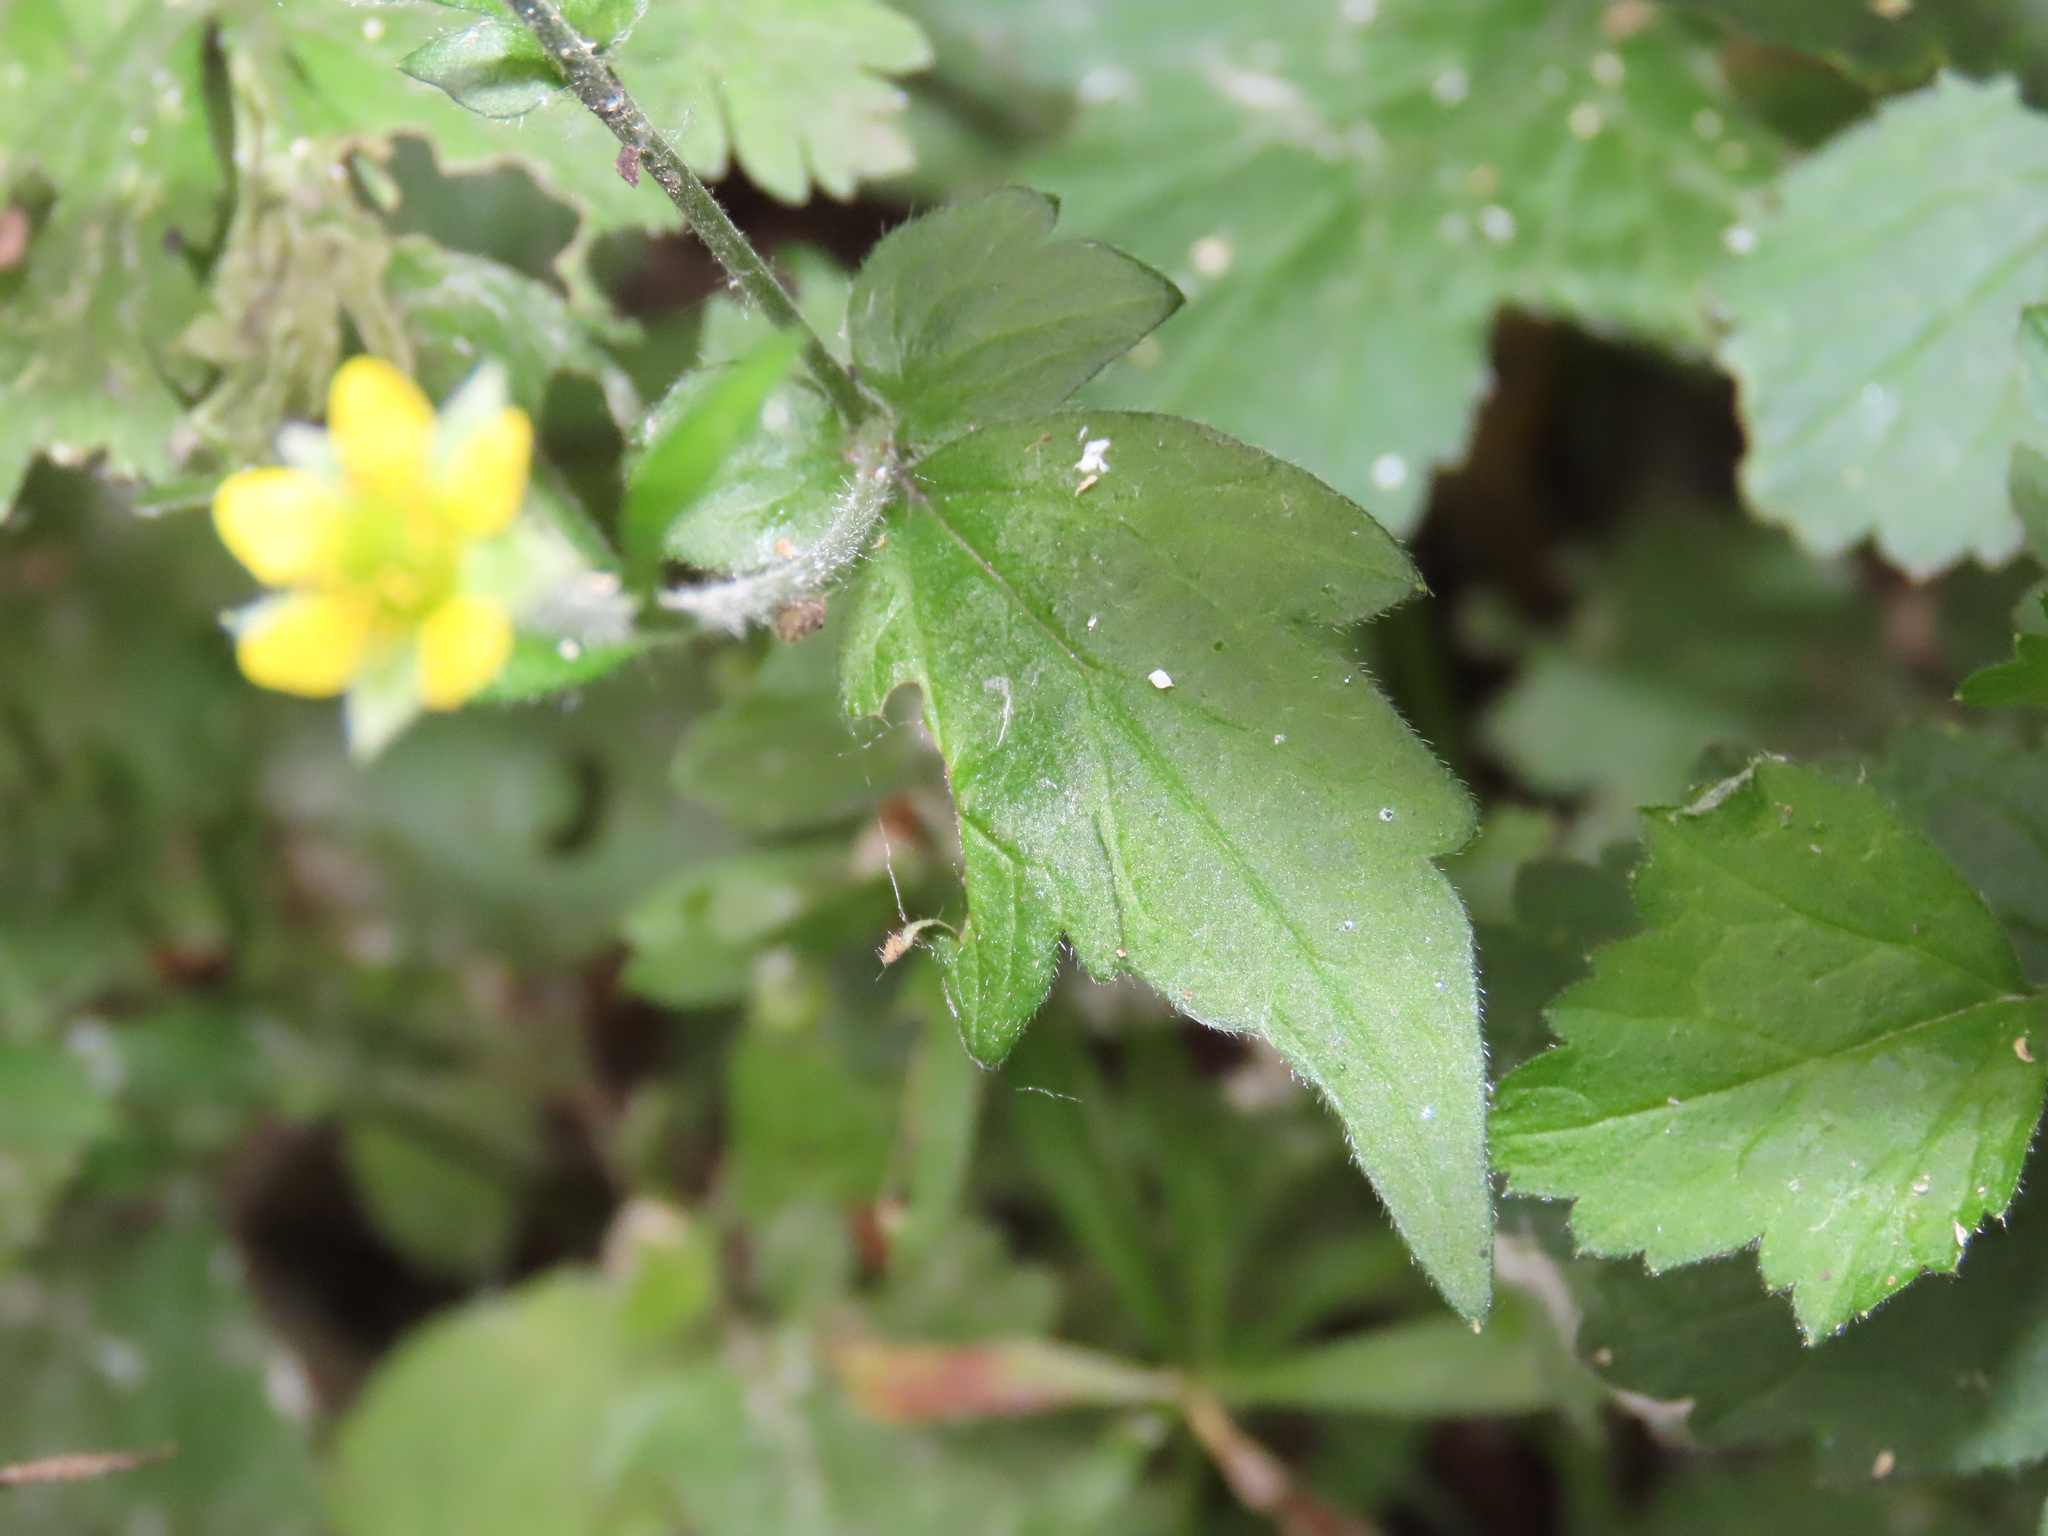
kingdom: Plantae
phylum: Tracheophyta
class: Magnoliopsida
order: Rosales
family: Rosaceae
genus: Geum
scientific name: Geum urbanum
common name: Wood avens
